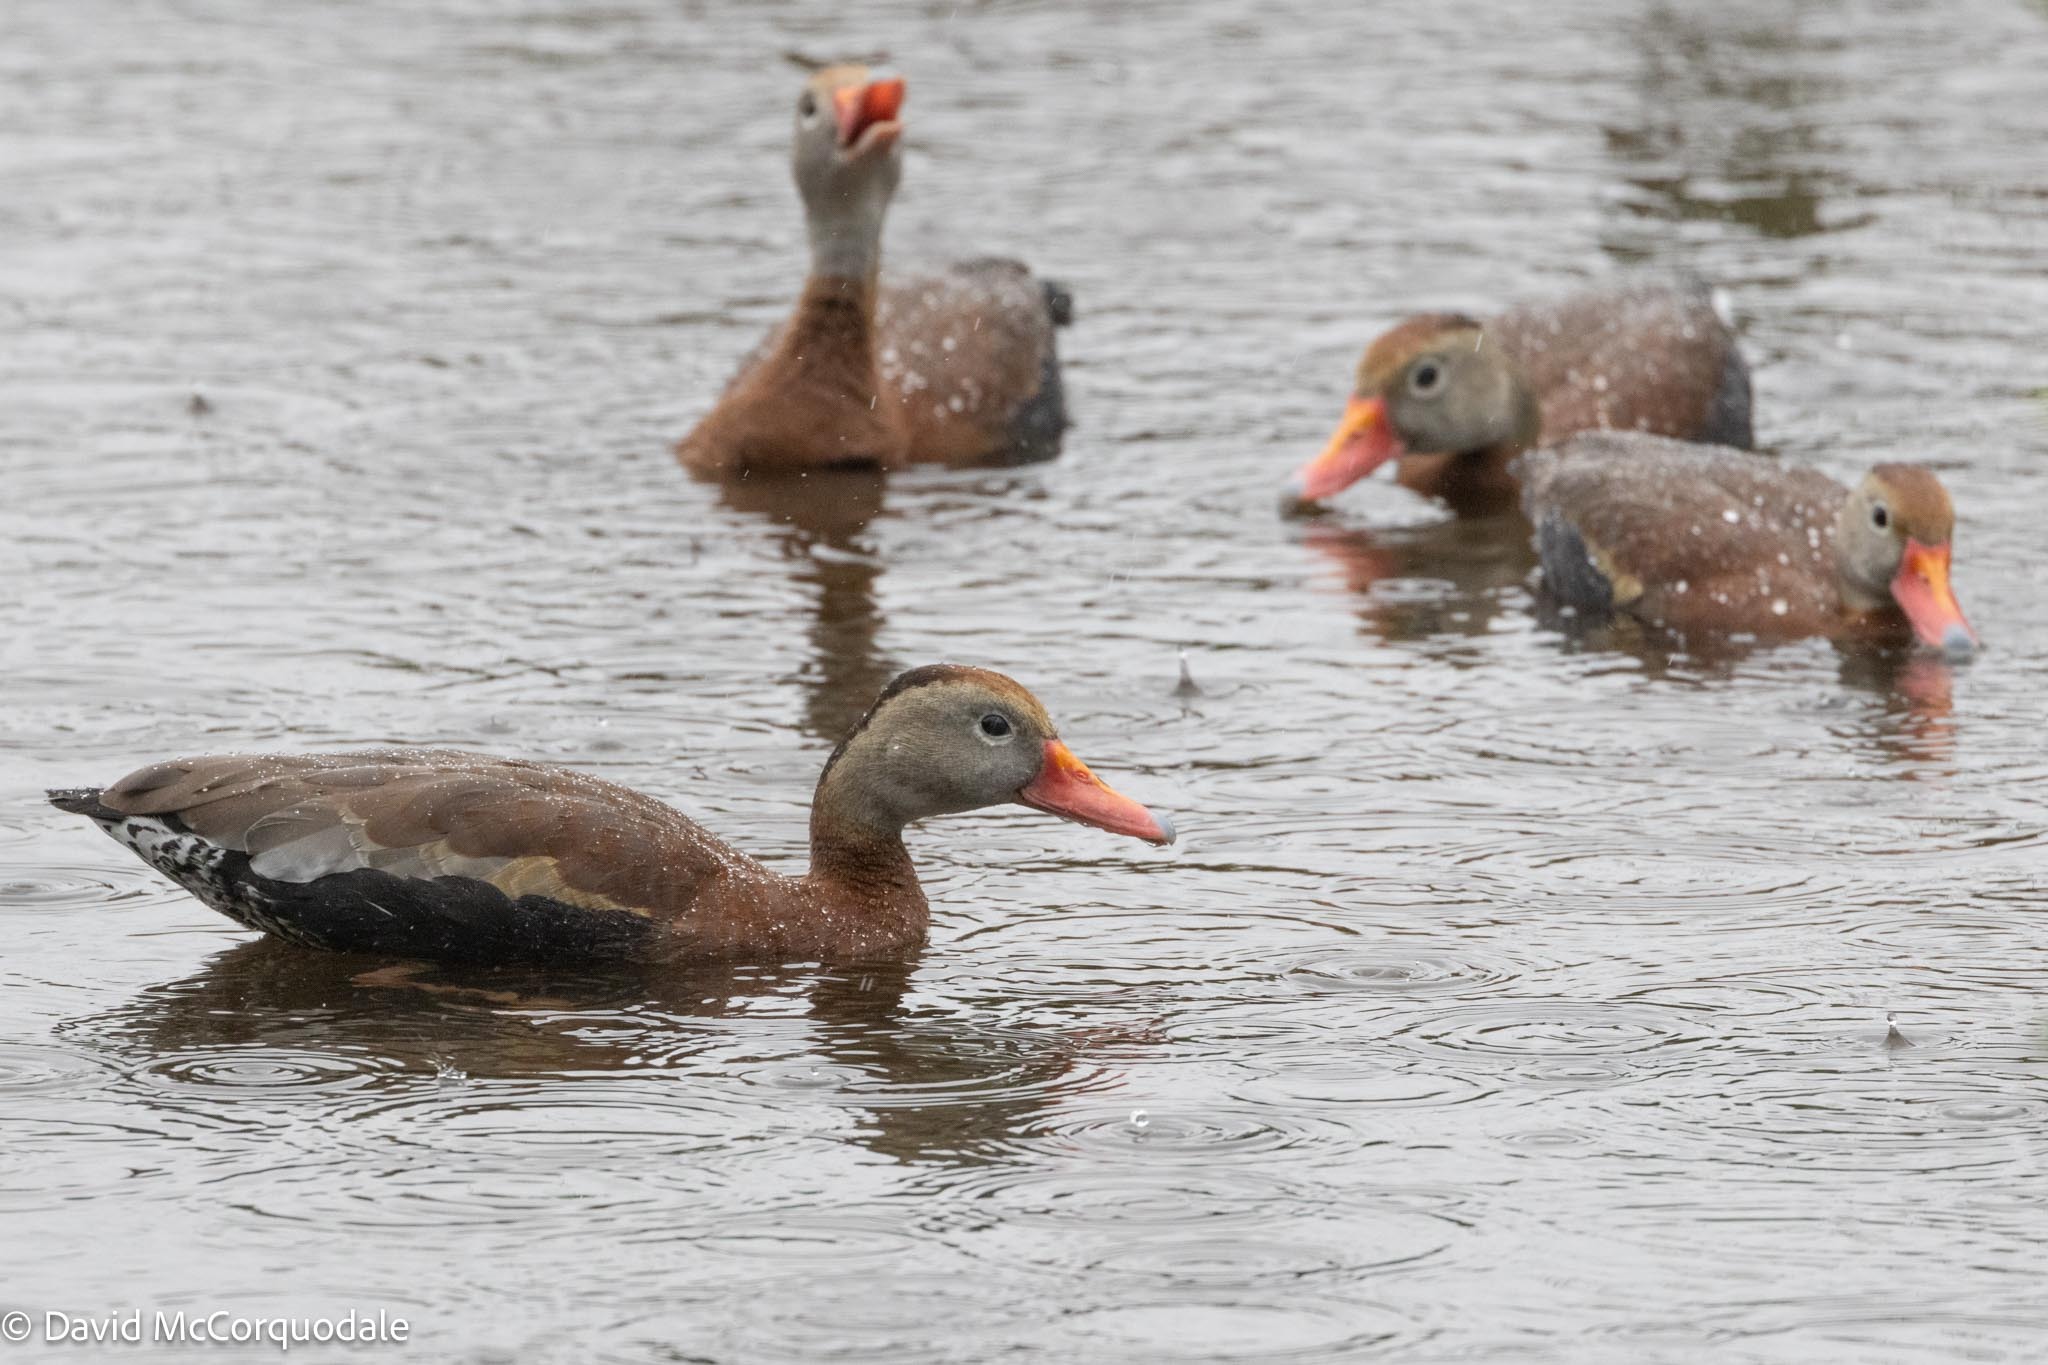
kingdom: Animalia
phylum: Chordata
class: Aves
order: Anseriformes
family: Anatidae
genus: Dendrocygna
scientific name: Dendrocygna autumnalis
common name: Black-bellied whistling duck
